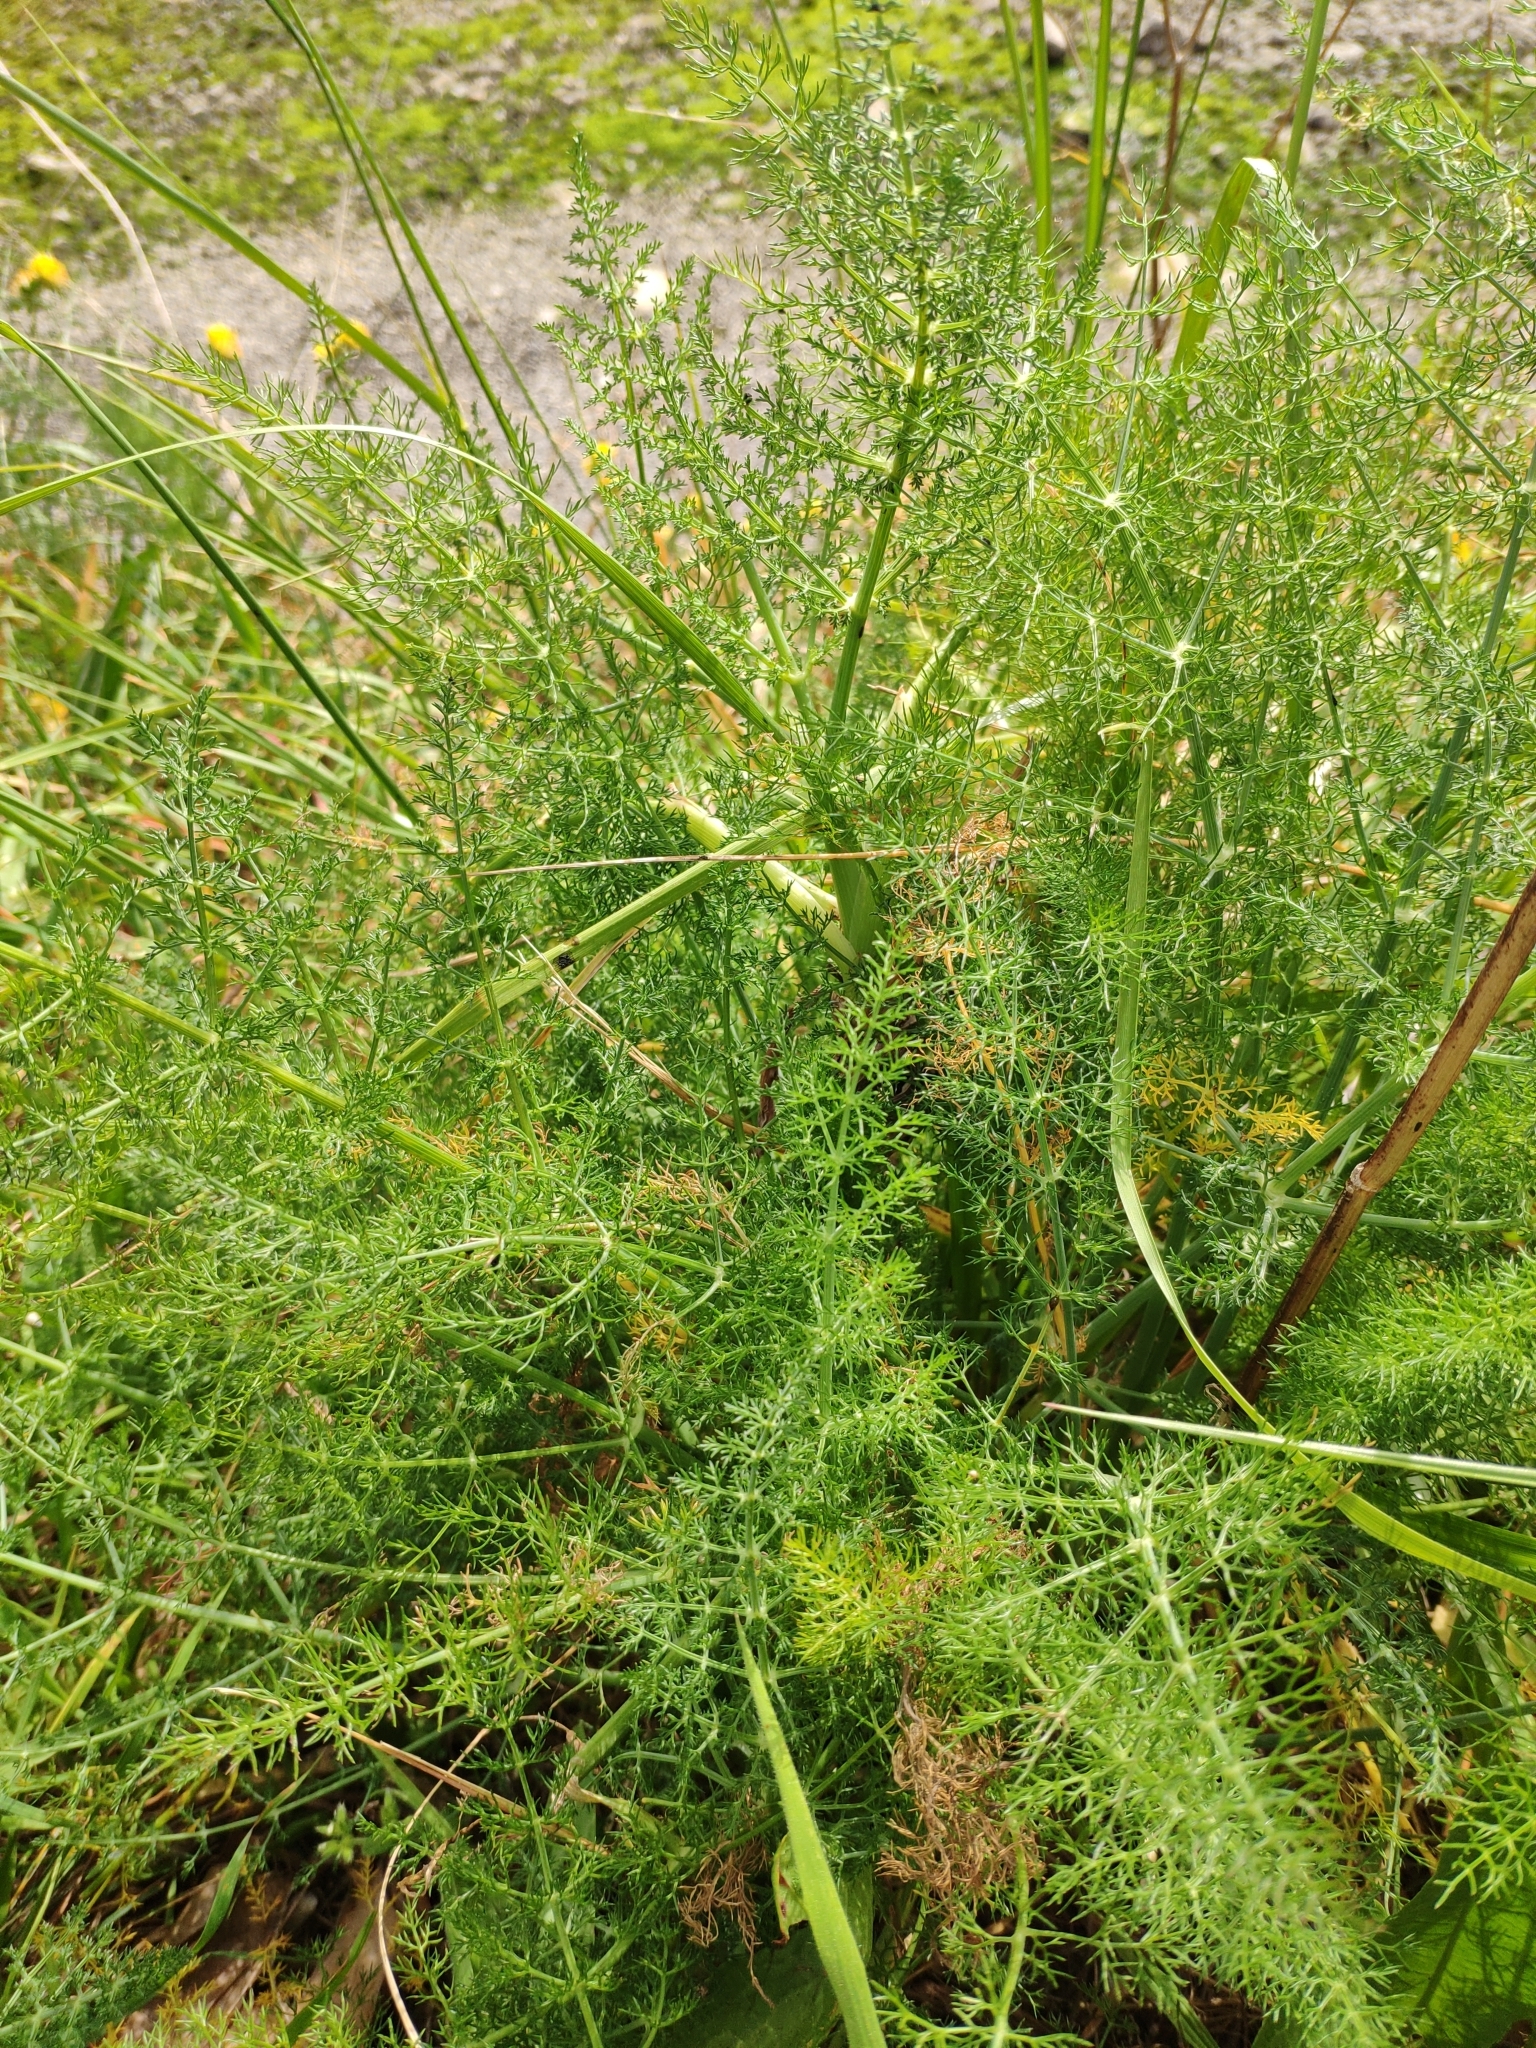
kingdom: Plantae
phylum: Tracheophyta
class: Magnoliopsida
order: Apiales
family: Apiaceae
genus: Foeniculum
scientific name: Foeniculum vulgare
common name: Fennel
